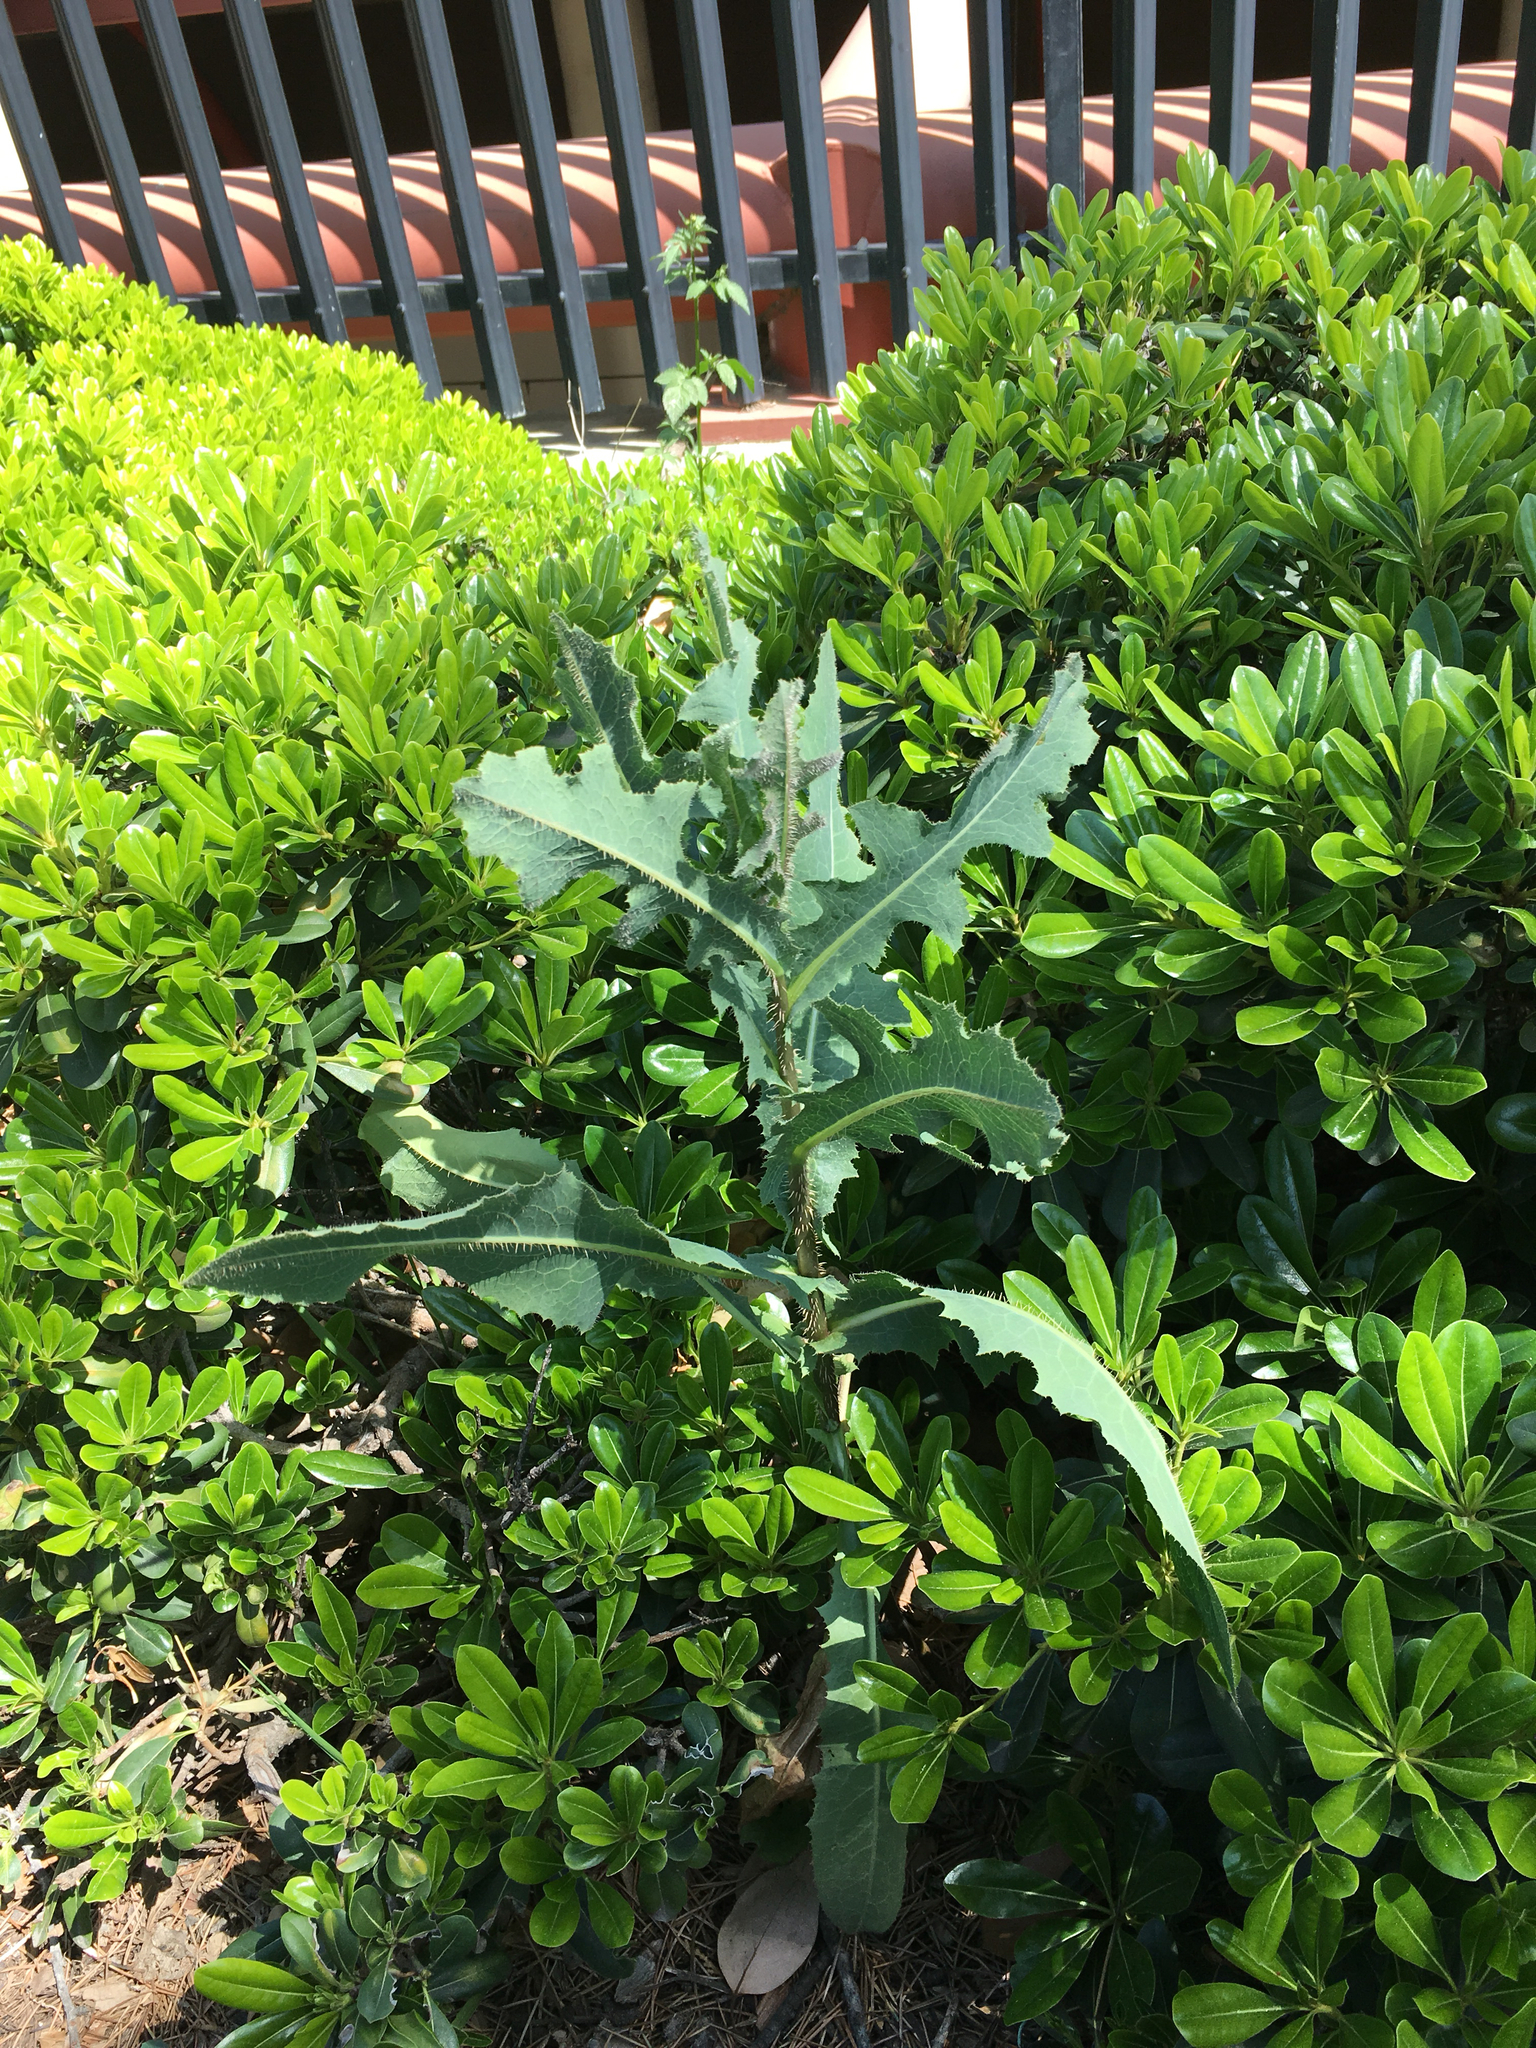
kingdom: Plantae
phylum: Tracheophyta
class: Magnoliopsida
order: Asterales
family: Asteraceae
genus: Lactuca
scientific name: Lactuca serriola
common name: Prickly lettuce
